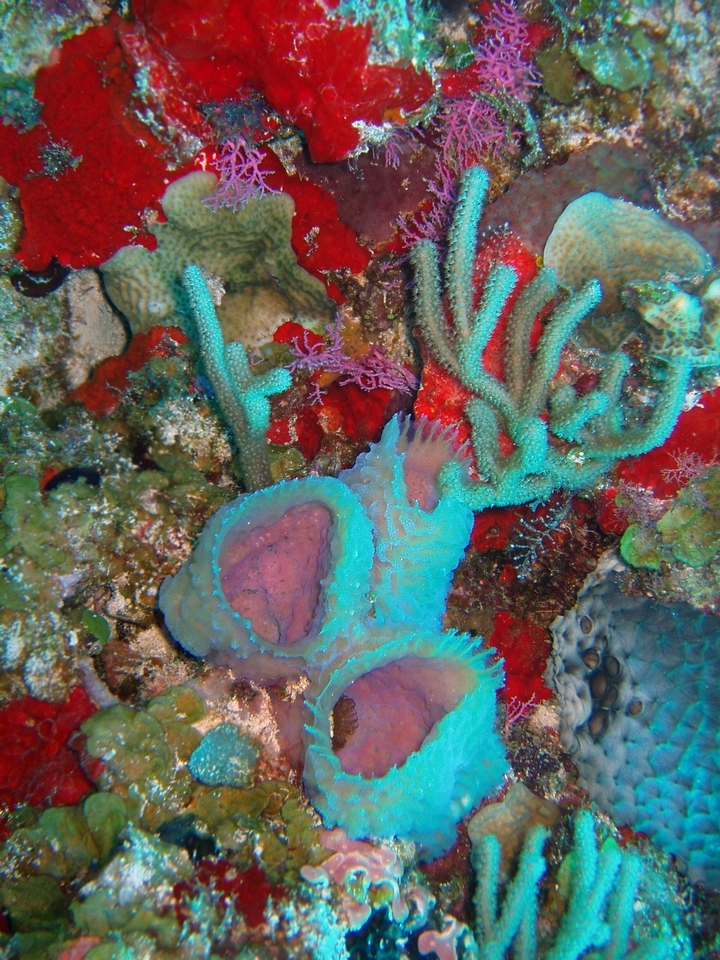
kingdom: Animalia
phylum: Porifera
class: Demospongiae
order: Haplosclerida
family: Callyspongiidae
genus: Callyspongia
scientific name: Callyspongia plicifera
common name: Azure vase sponge
